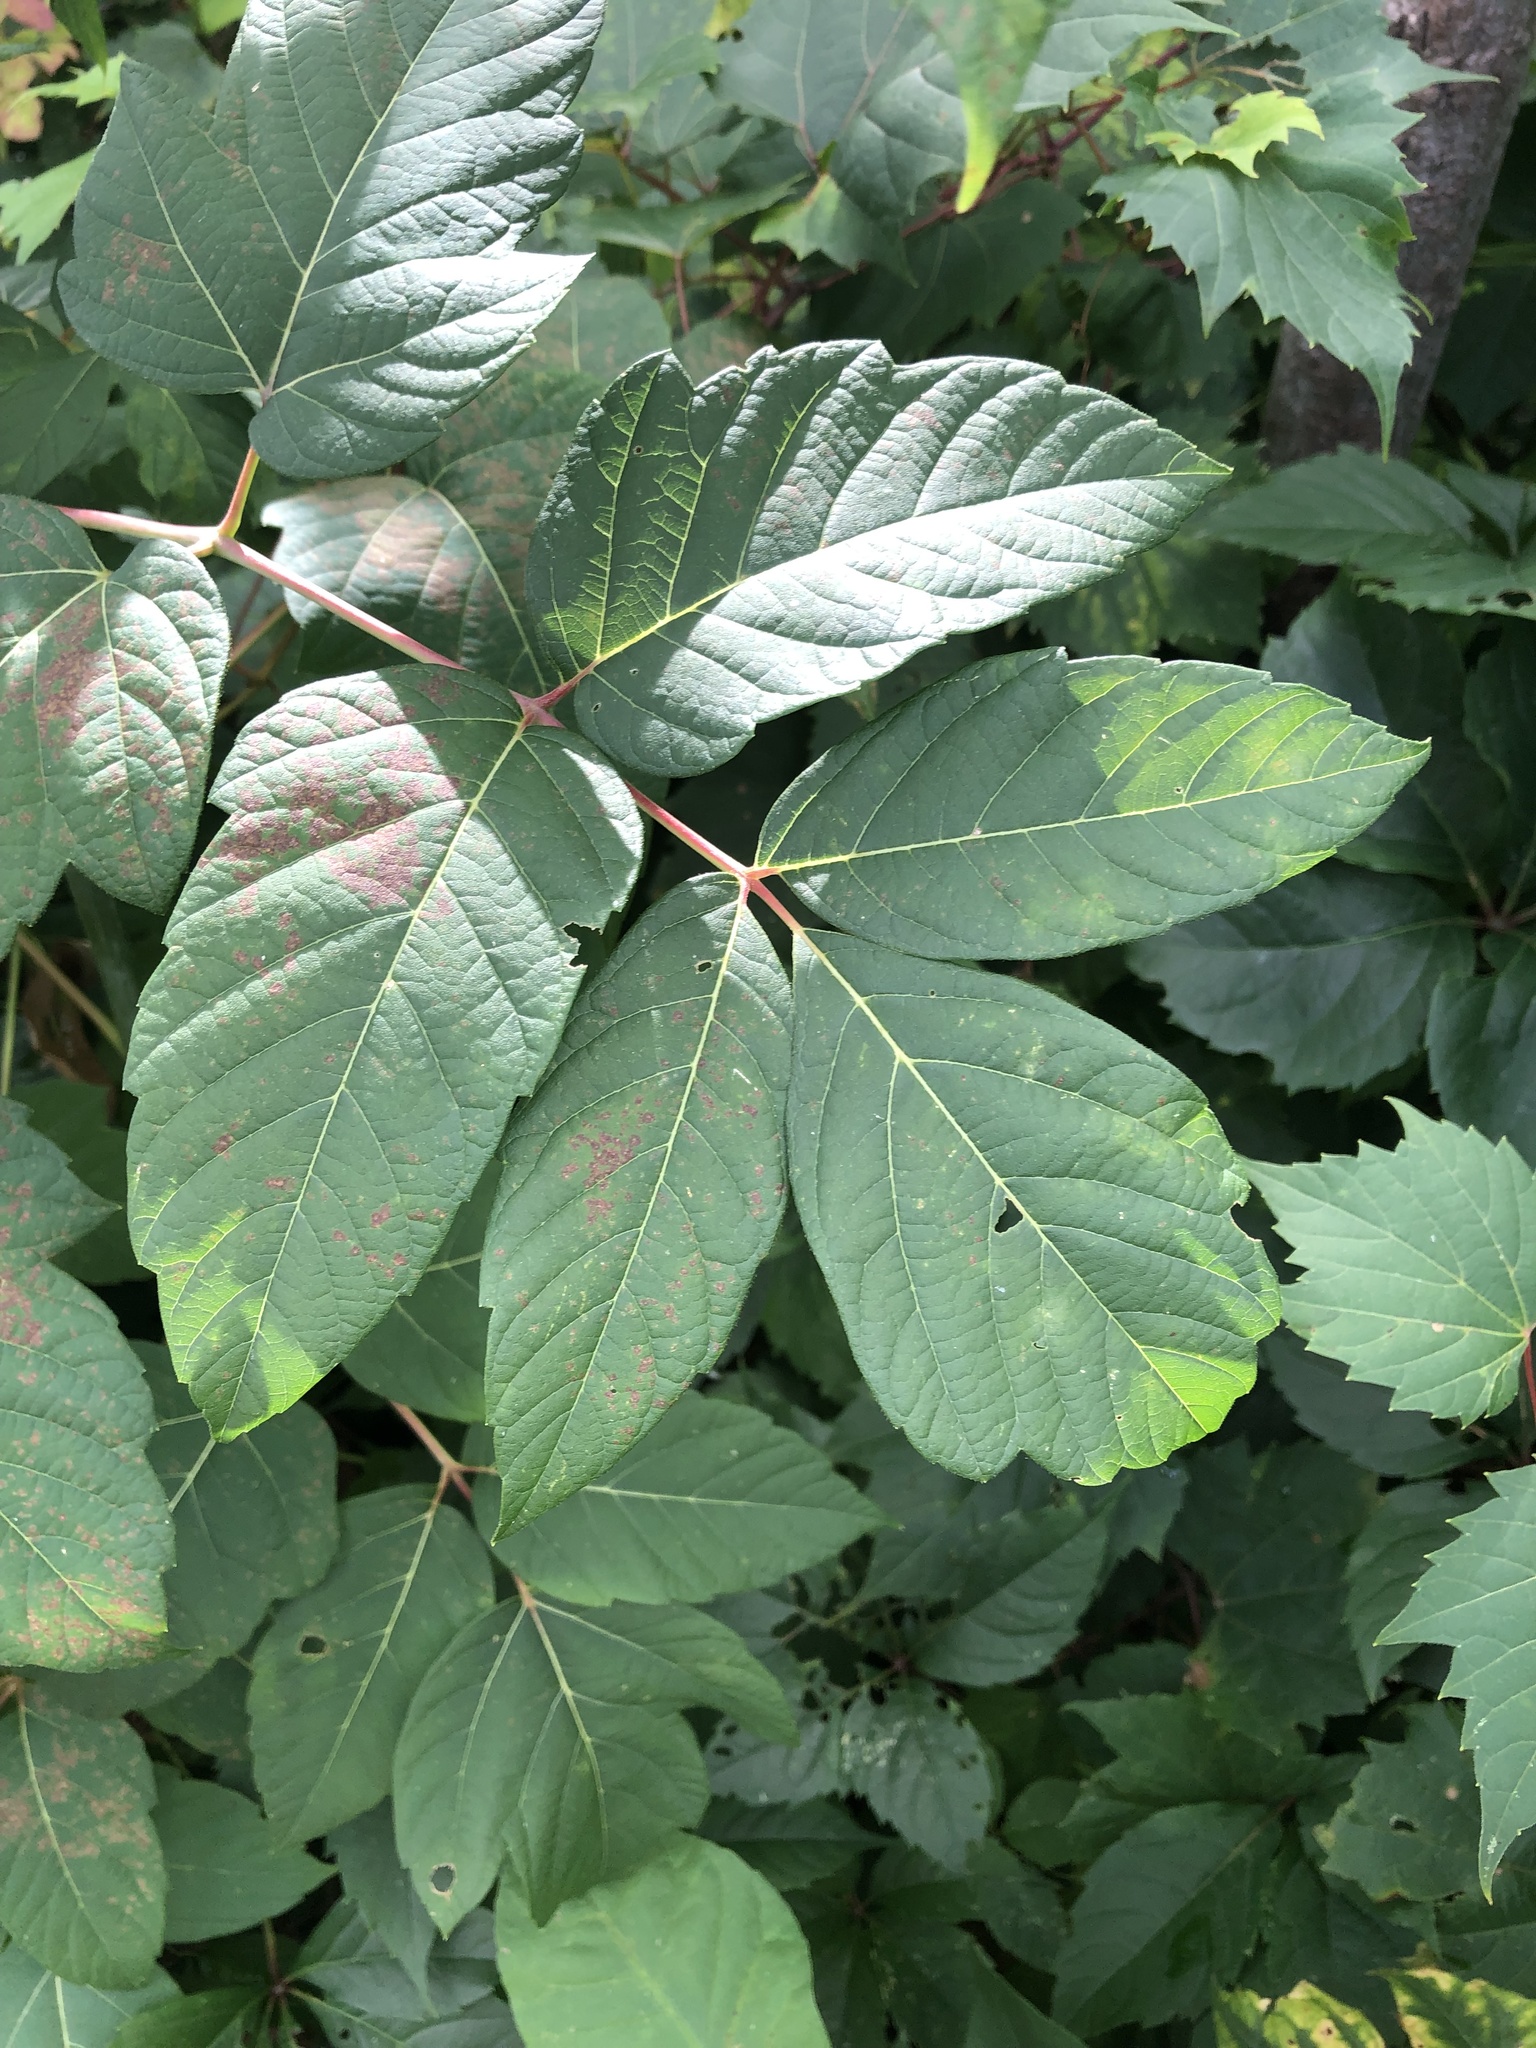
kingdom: Plantae
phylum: Tracheophyta
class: Magnoliopsida
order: Sapindales
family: Sapindaceae
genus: Acer
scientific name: Acer negundo
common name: Ashleaf maple
